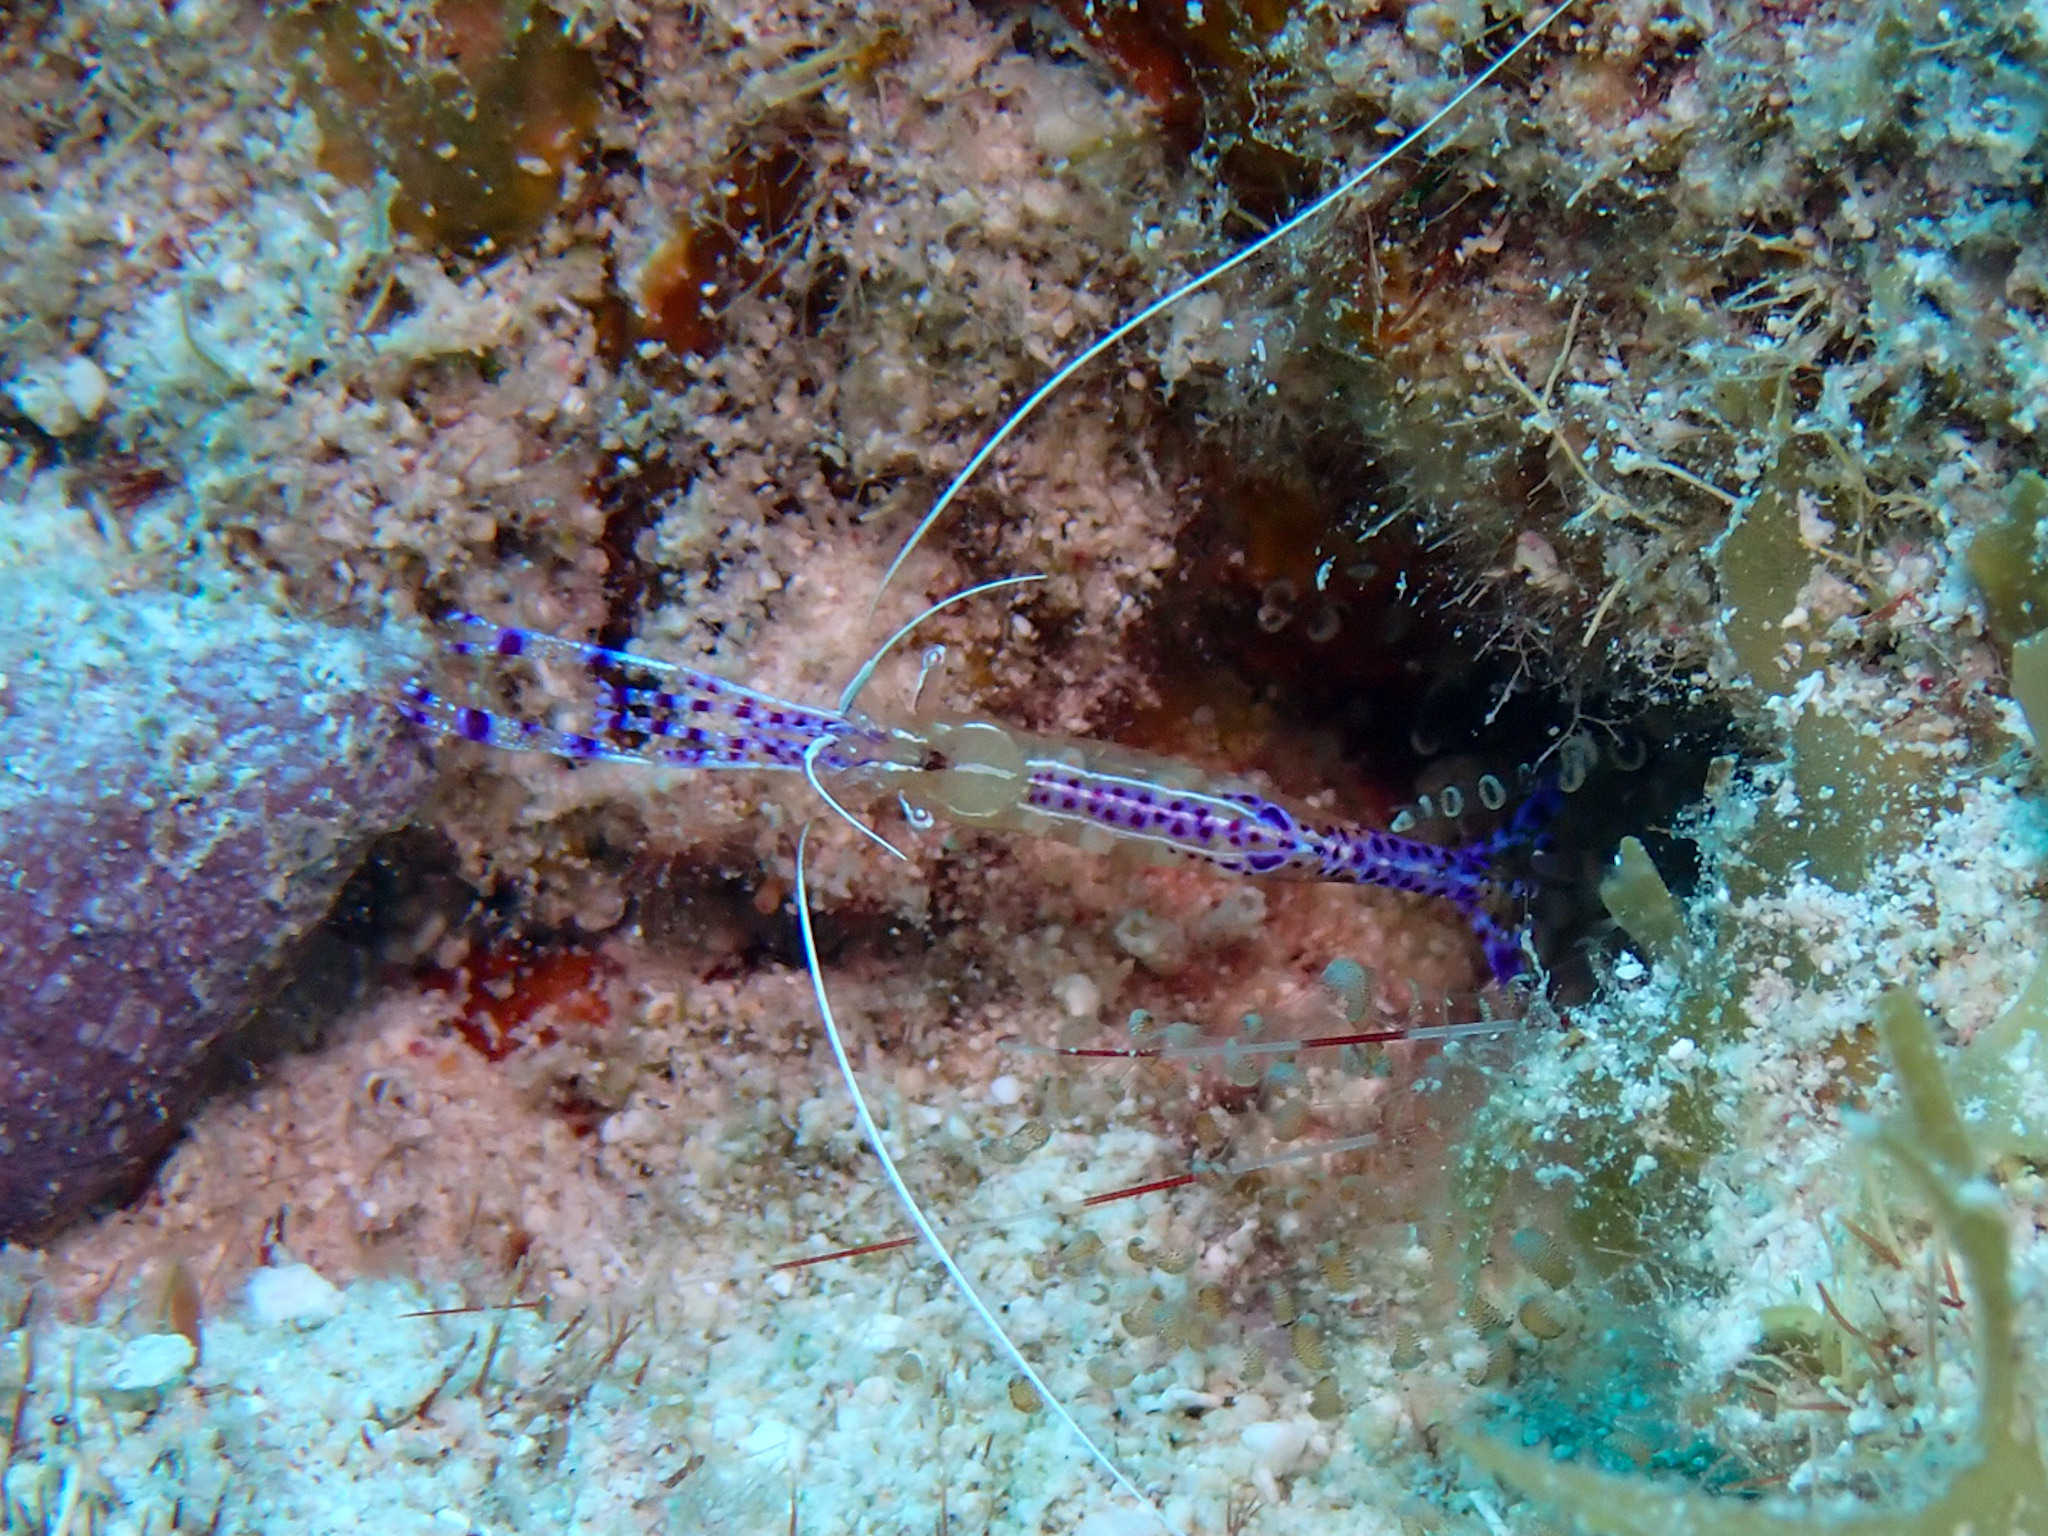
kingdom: Animalia
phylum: Arthropoda
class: Malacostraca
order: Decapoda
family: Palaemonidae
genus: Ancylomenes
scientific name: Ancylomenes pedersoni
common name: Pederson's cleaning shrimp
